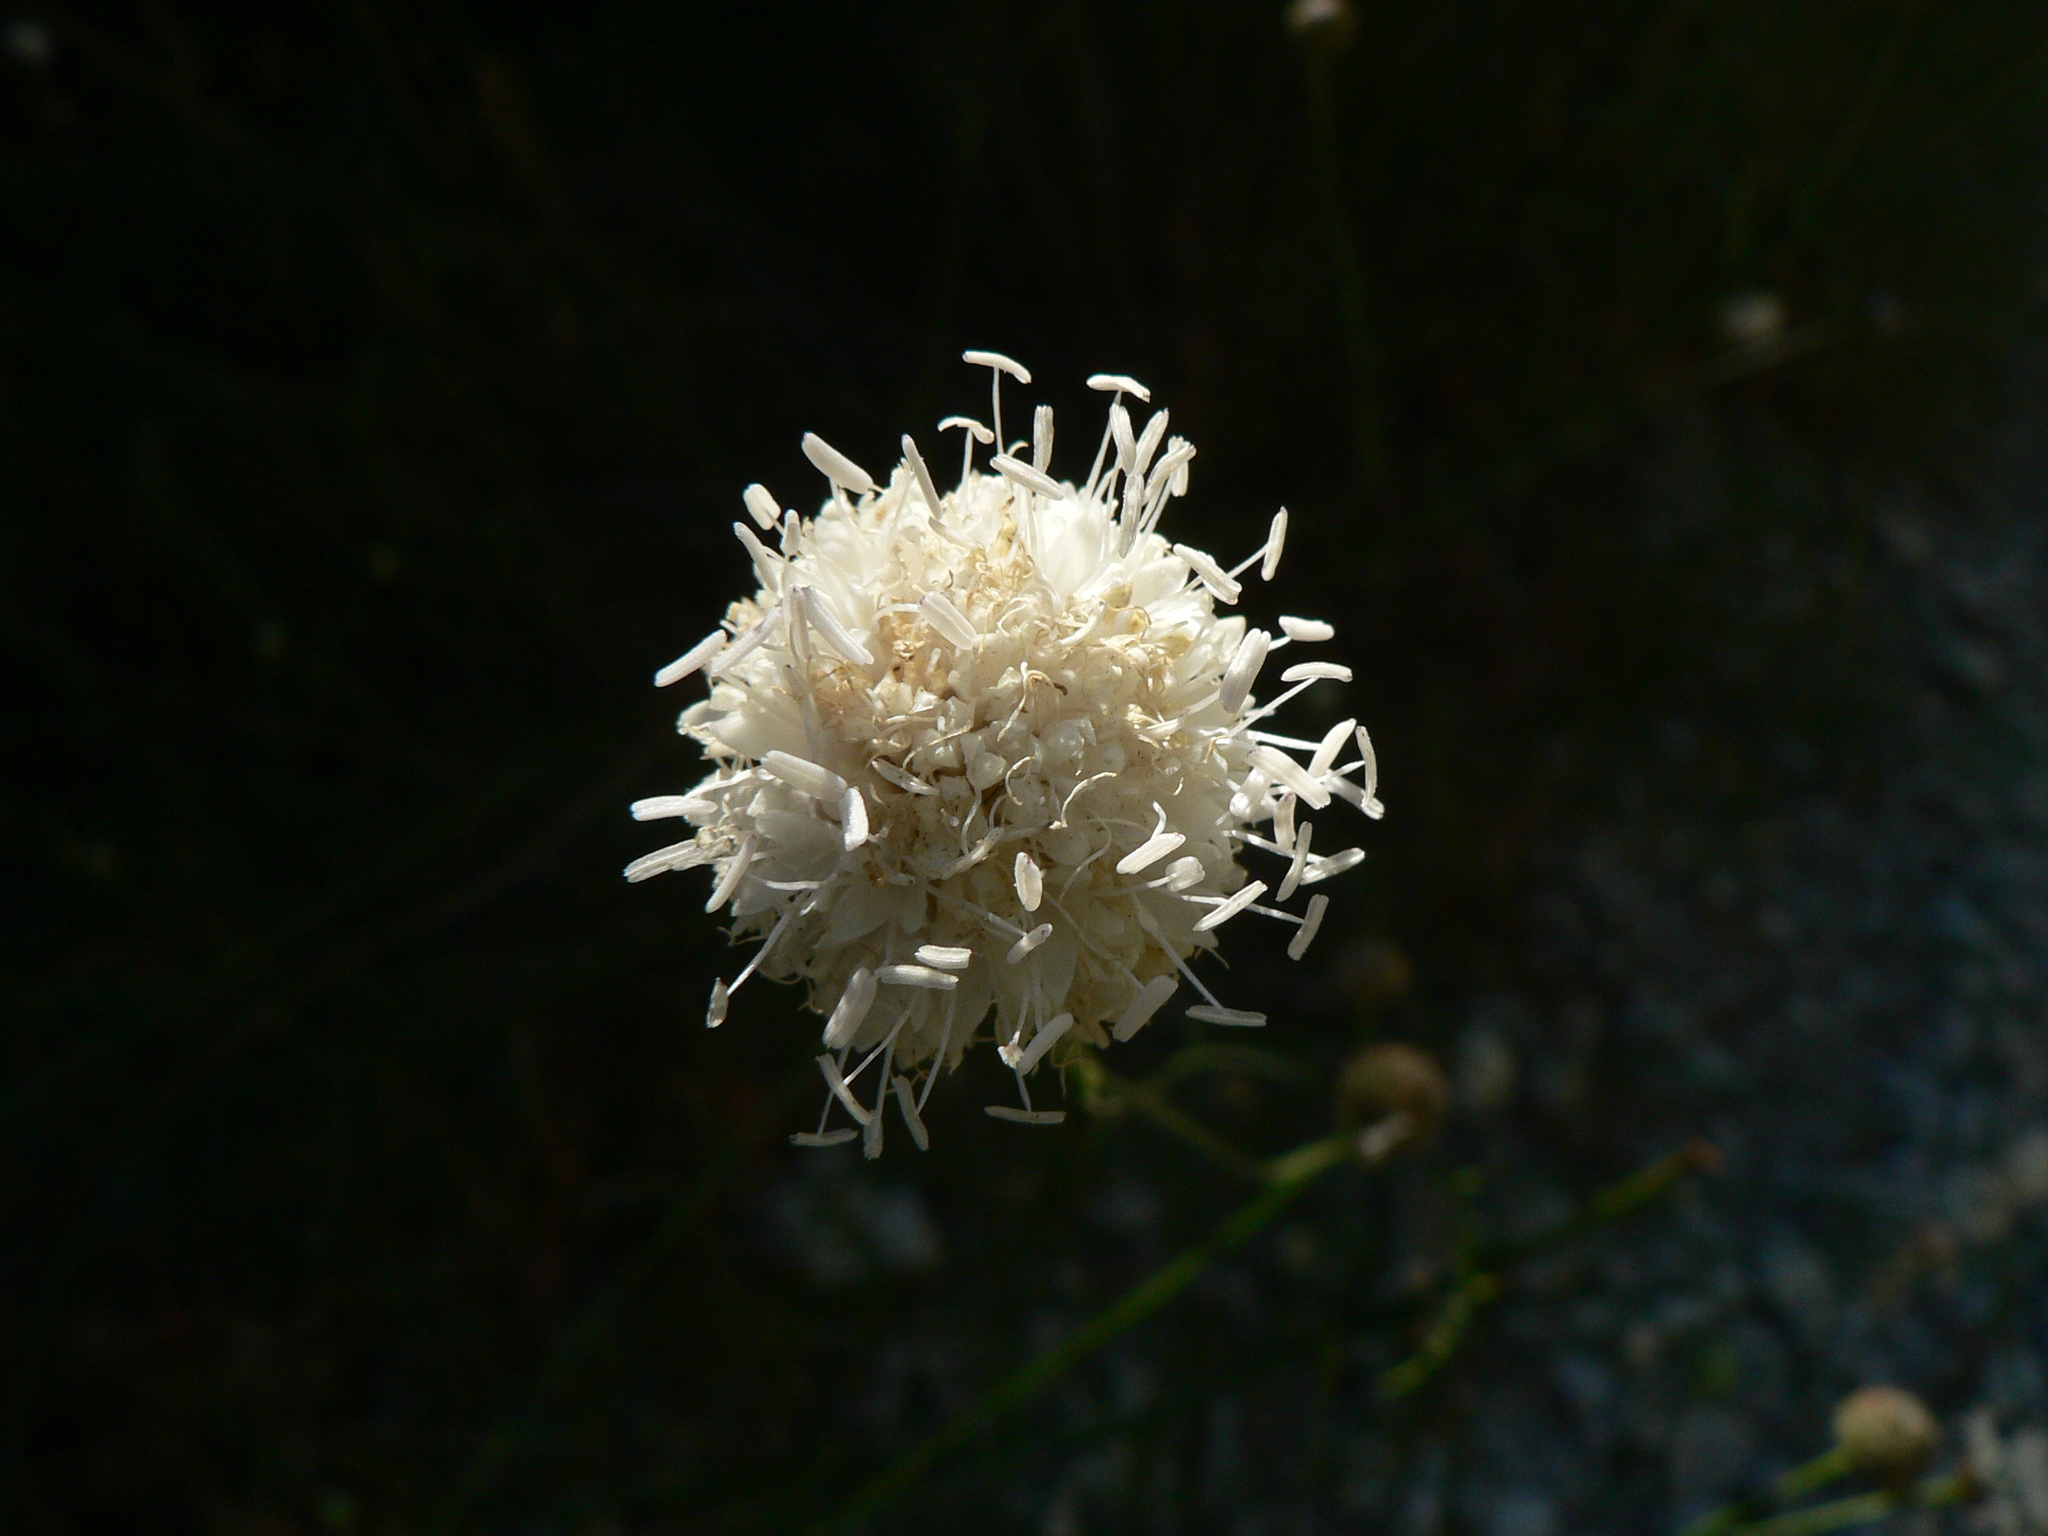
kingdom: Plantae
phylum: Tracheophyta
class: Magnoliopsida
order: Dipsacales
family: Caprifoliaceae
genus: Cephalaria
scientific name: Cephalaria leucantha
